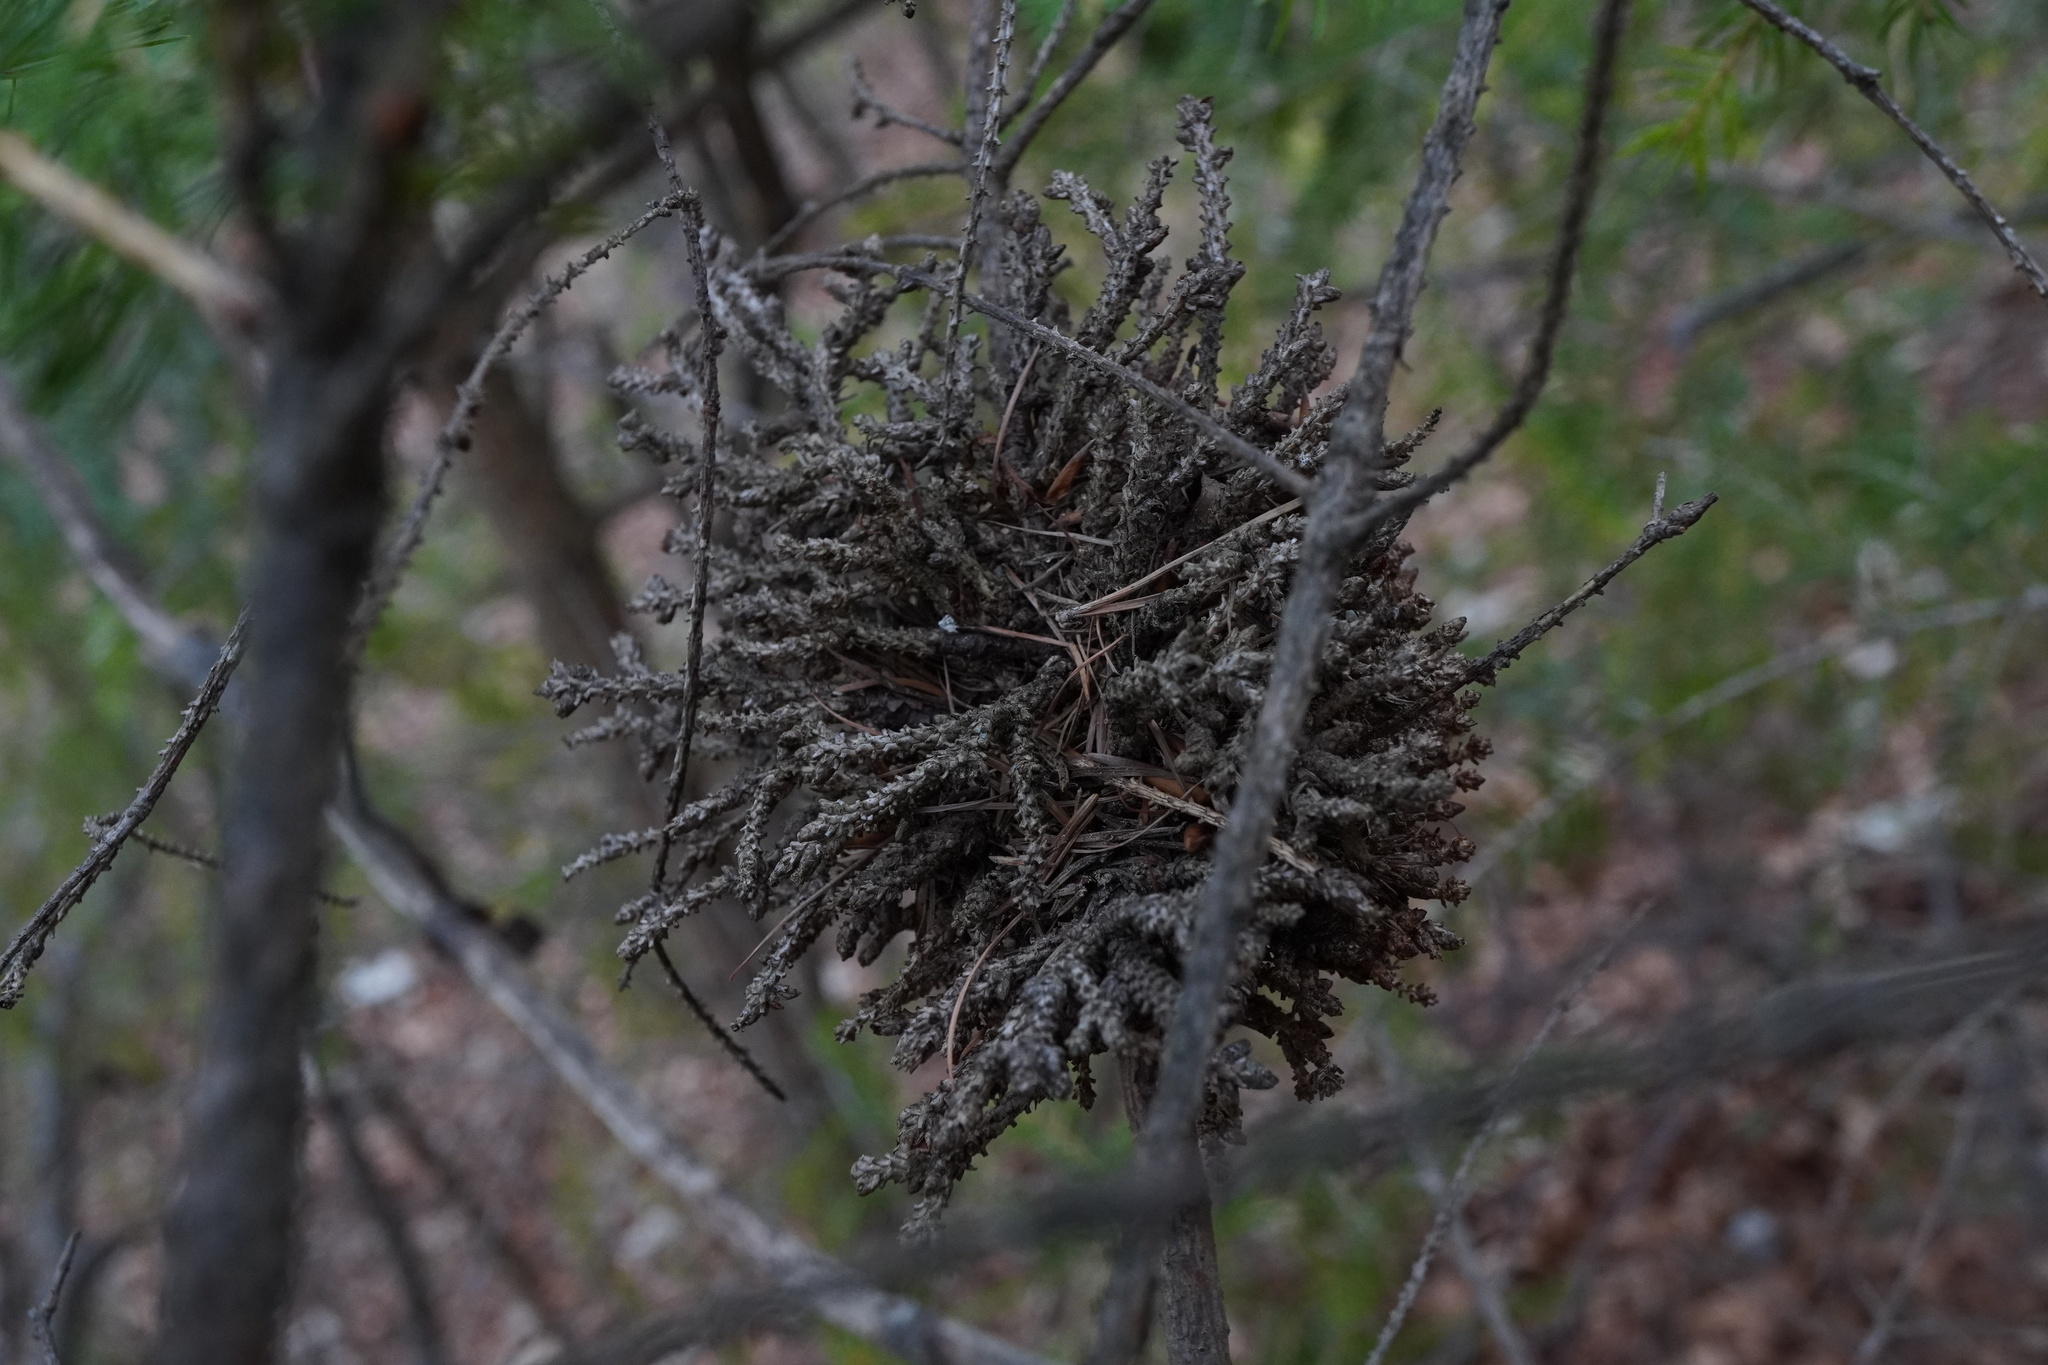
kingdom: Plantae
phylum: Tracheophyta
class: Pinopsida
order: Pinales
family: Pinaceae
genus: Picea
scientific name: Picea abies
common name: Norway spruce
